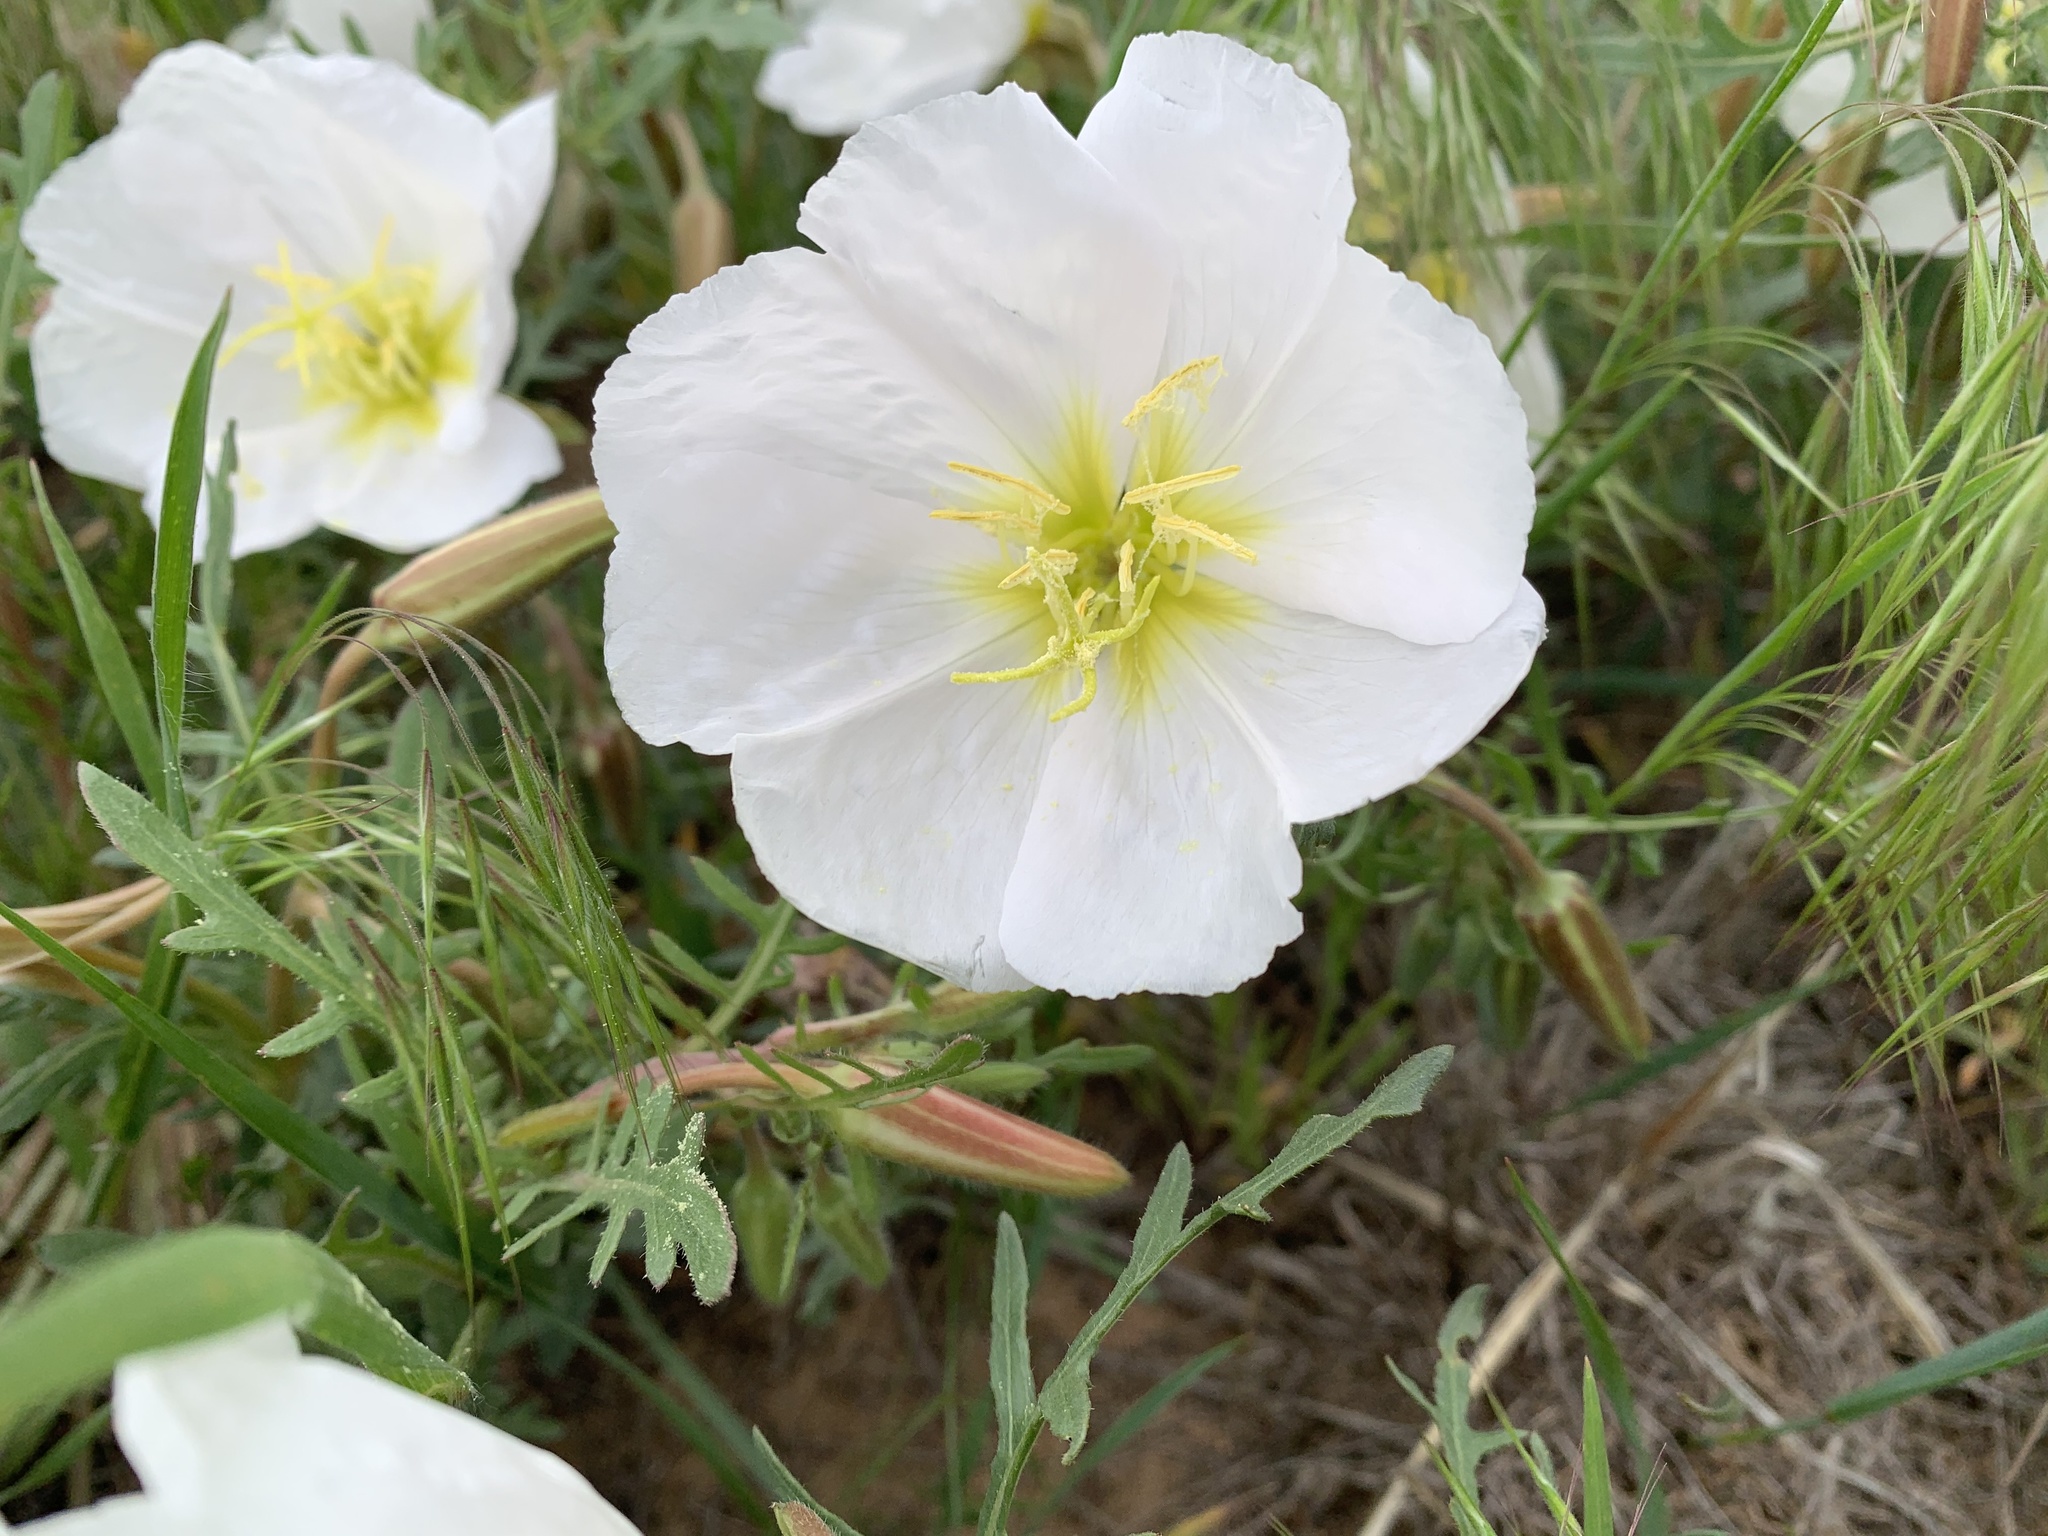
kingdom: Plantae
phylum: Tracheophyta
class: Magnoliopsida
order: Myrtales
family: Onagraceae
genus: Oenothera
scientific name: Oenothera albicaulis
